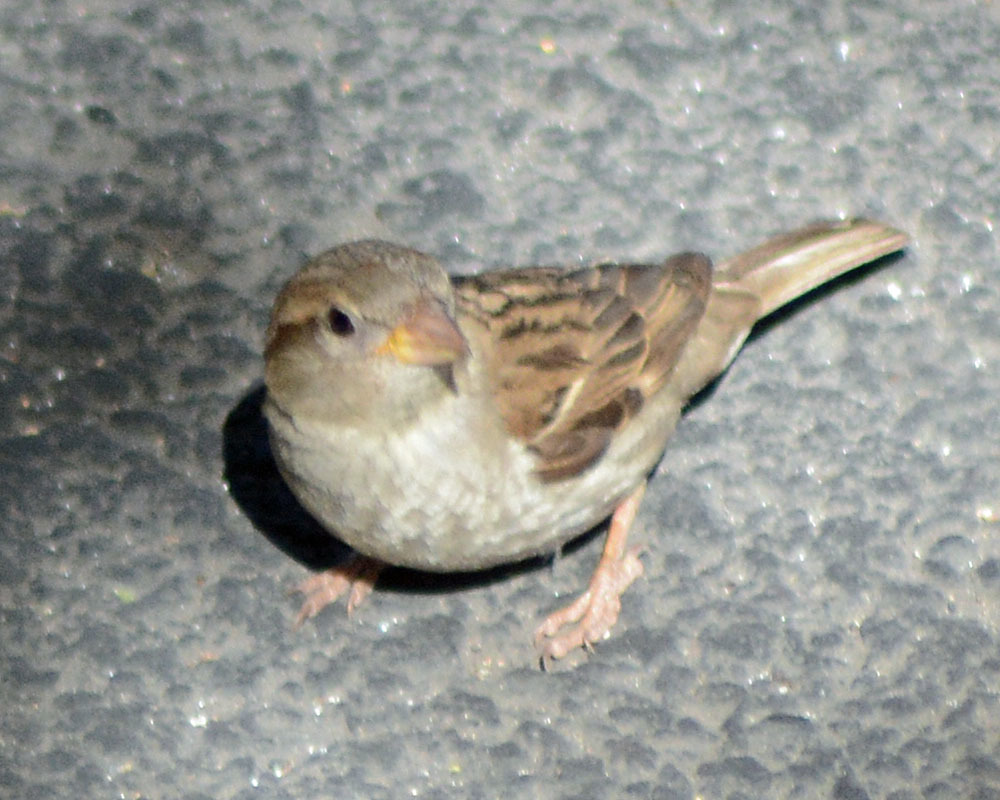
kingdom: Animalia
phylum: Chordata
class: Aves
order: Passeriformes
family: Passeridae
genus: Passer
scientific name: Passer domesticus
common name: House sparrow
